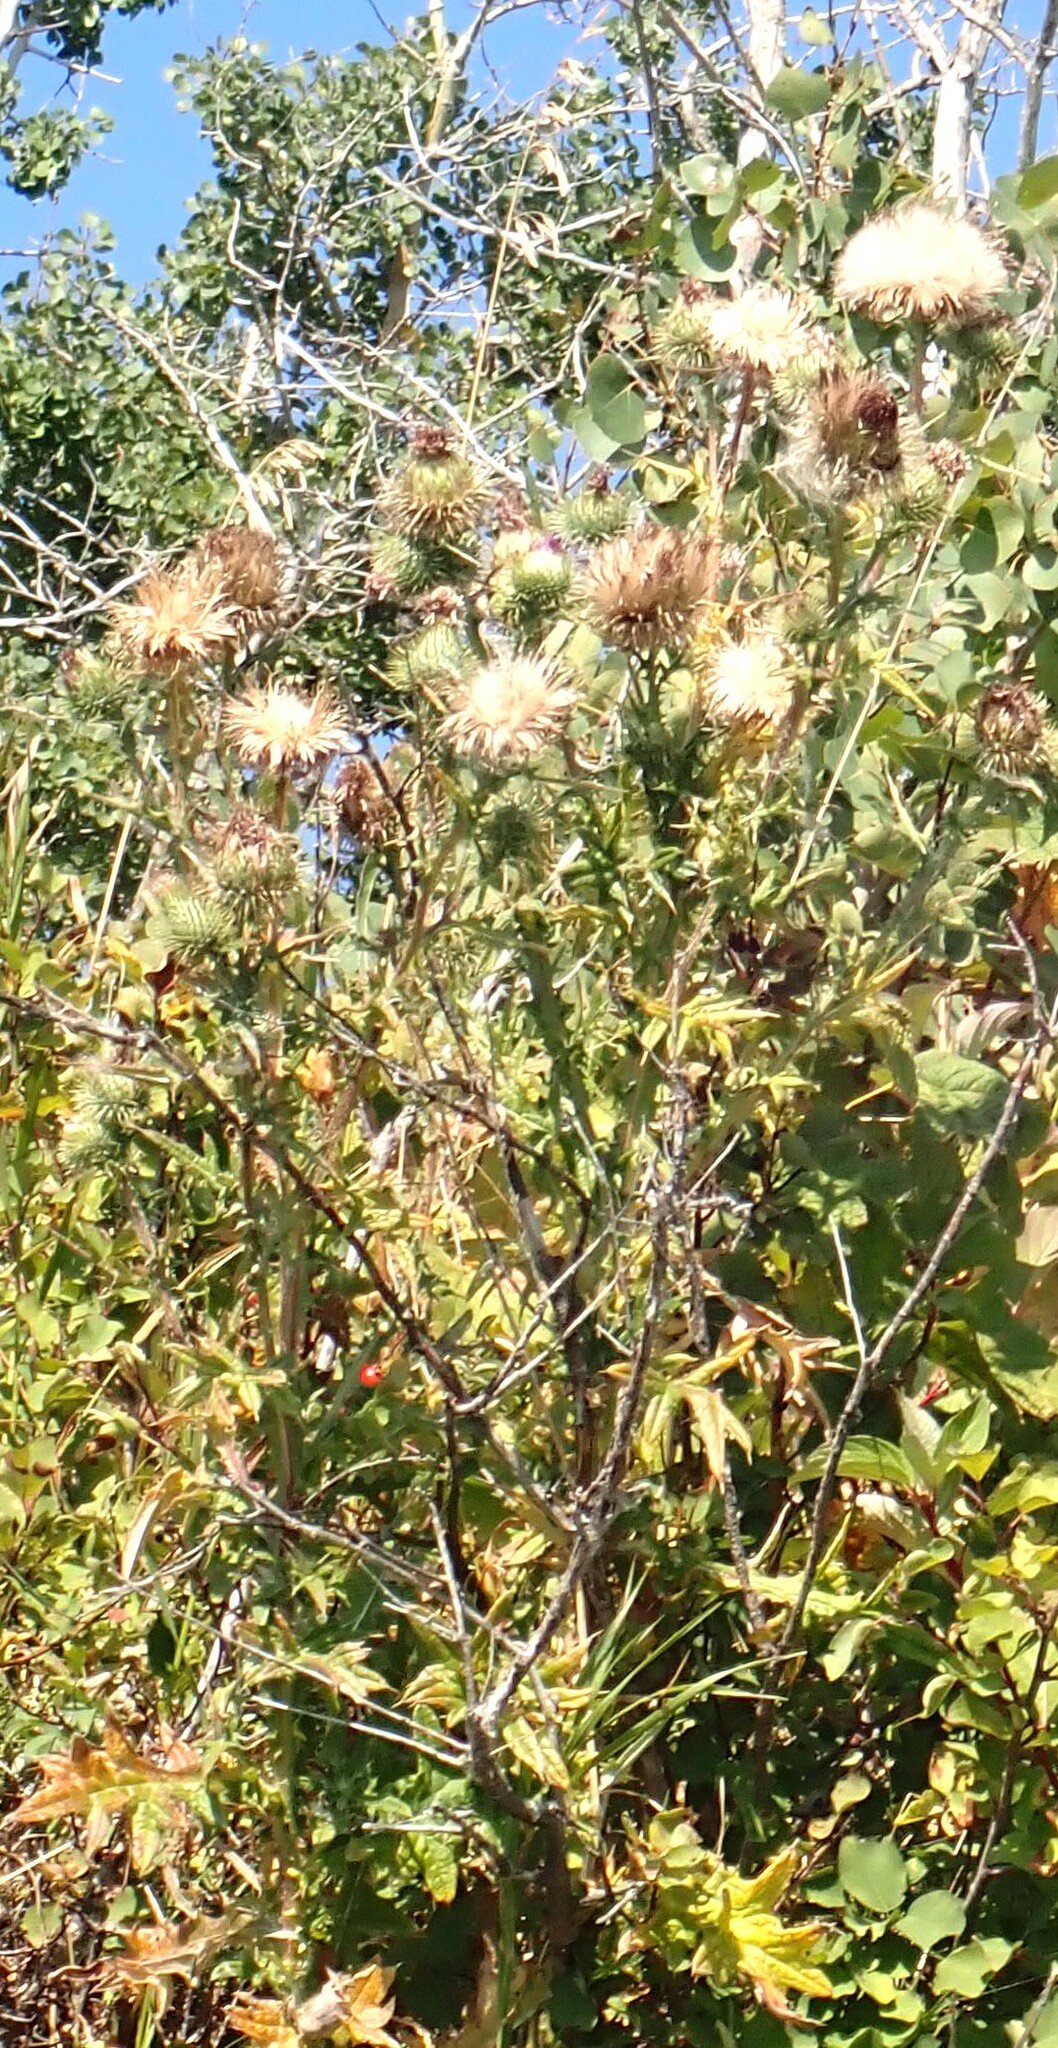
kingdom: Plantae
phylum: Tracheophyta
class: Magnoliopsida
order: Asterales
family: Asteraceae
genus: Cirsium
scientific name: Cirsium vulgare
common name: Bull thistle
